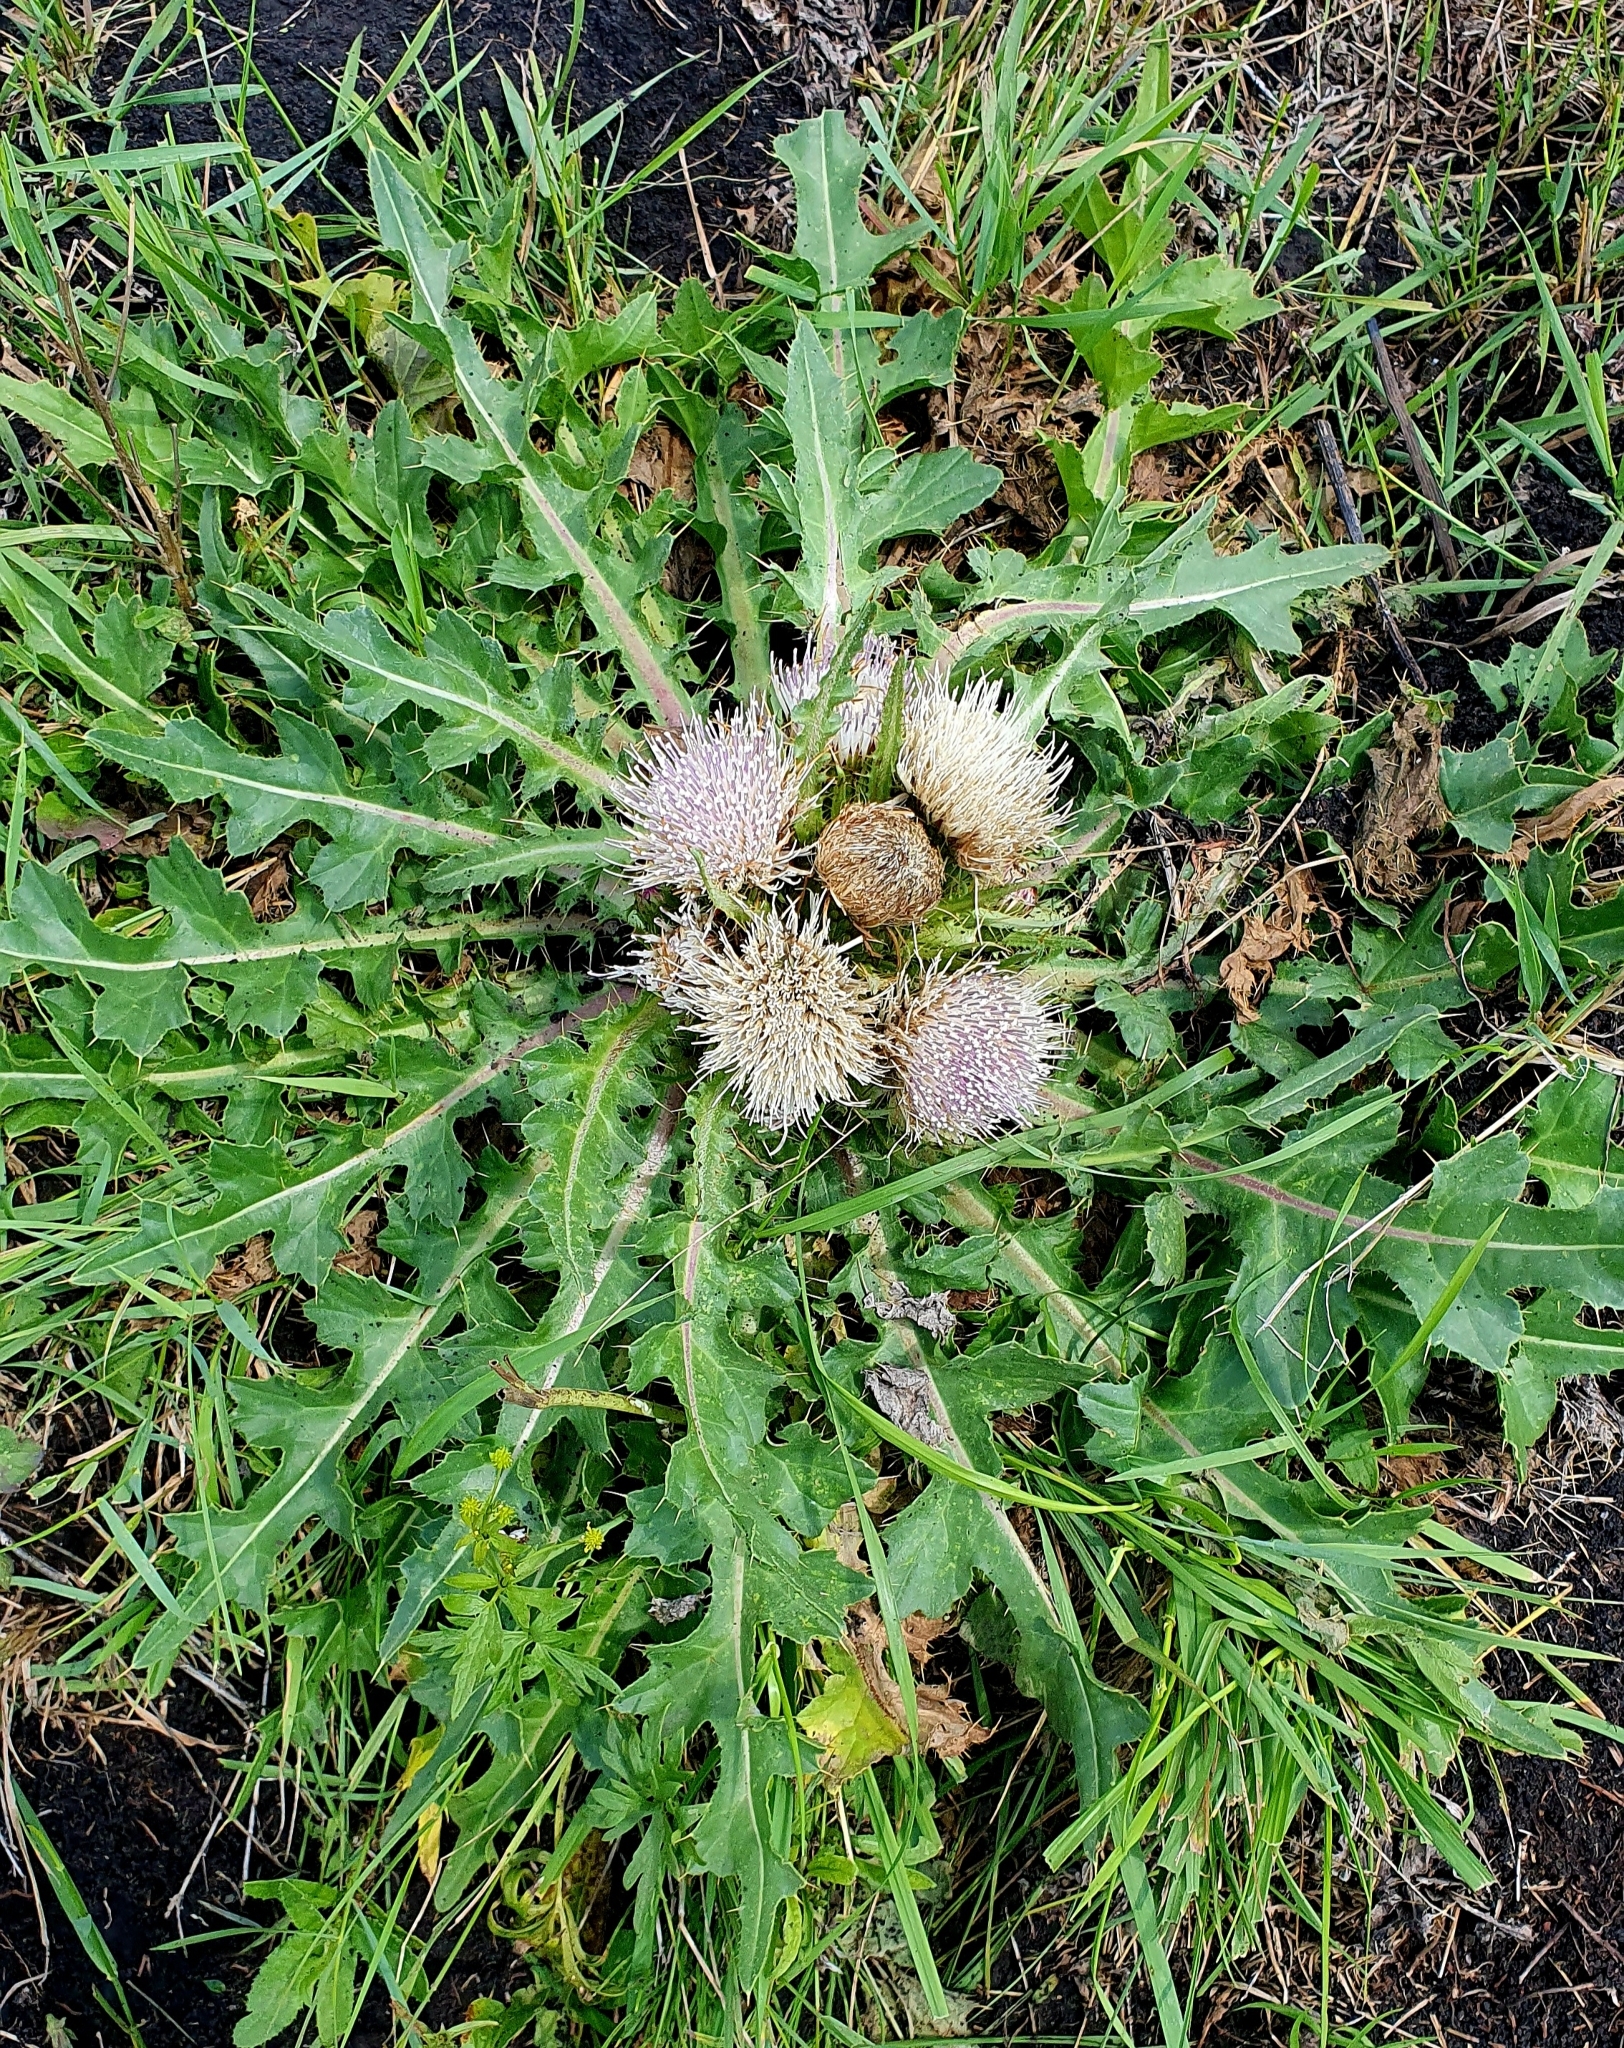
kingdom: Plantae
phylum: Tracheophyta
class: Magnoliopsida
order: Asterales
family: Asteraceae
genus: Cirsium
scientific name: Cirsium esculentum
